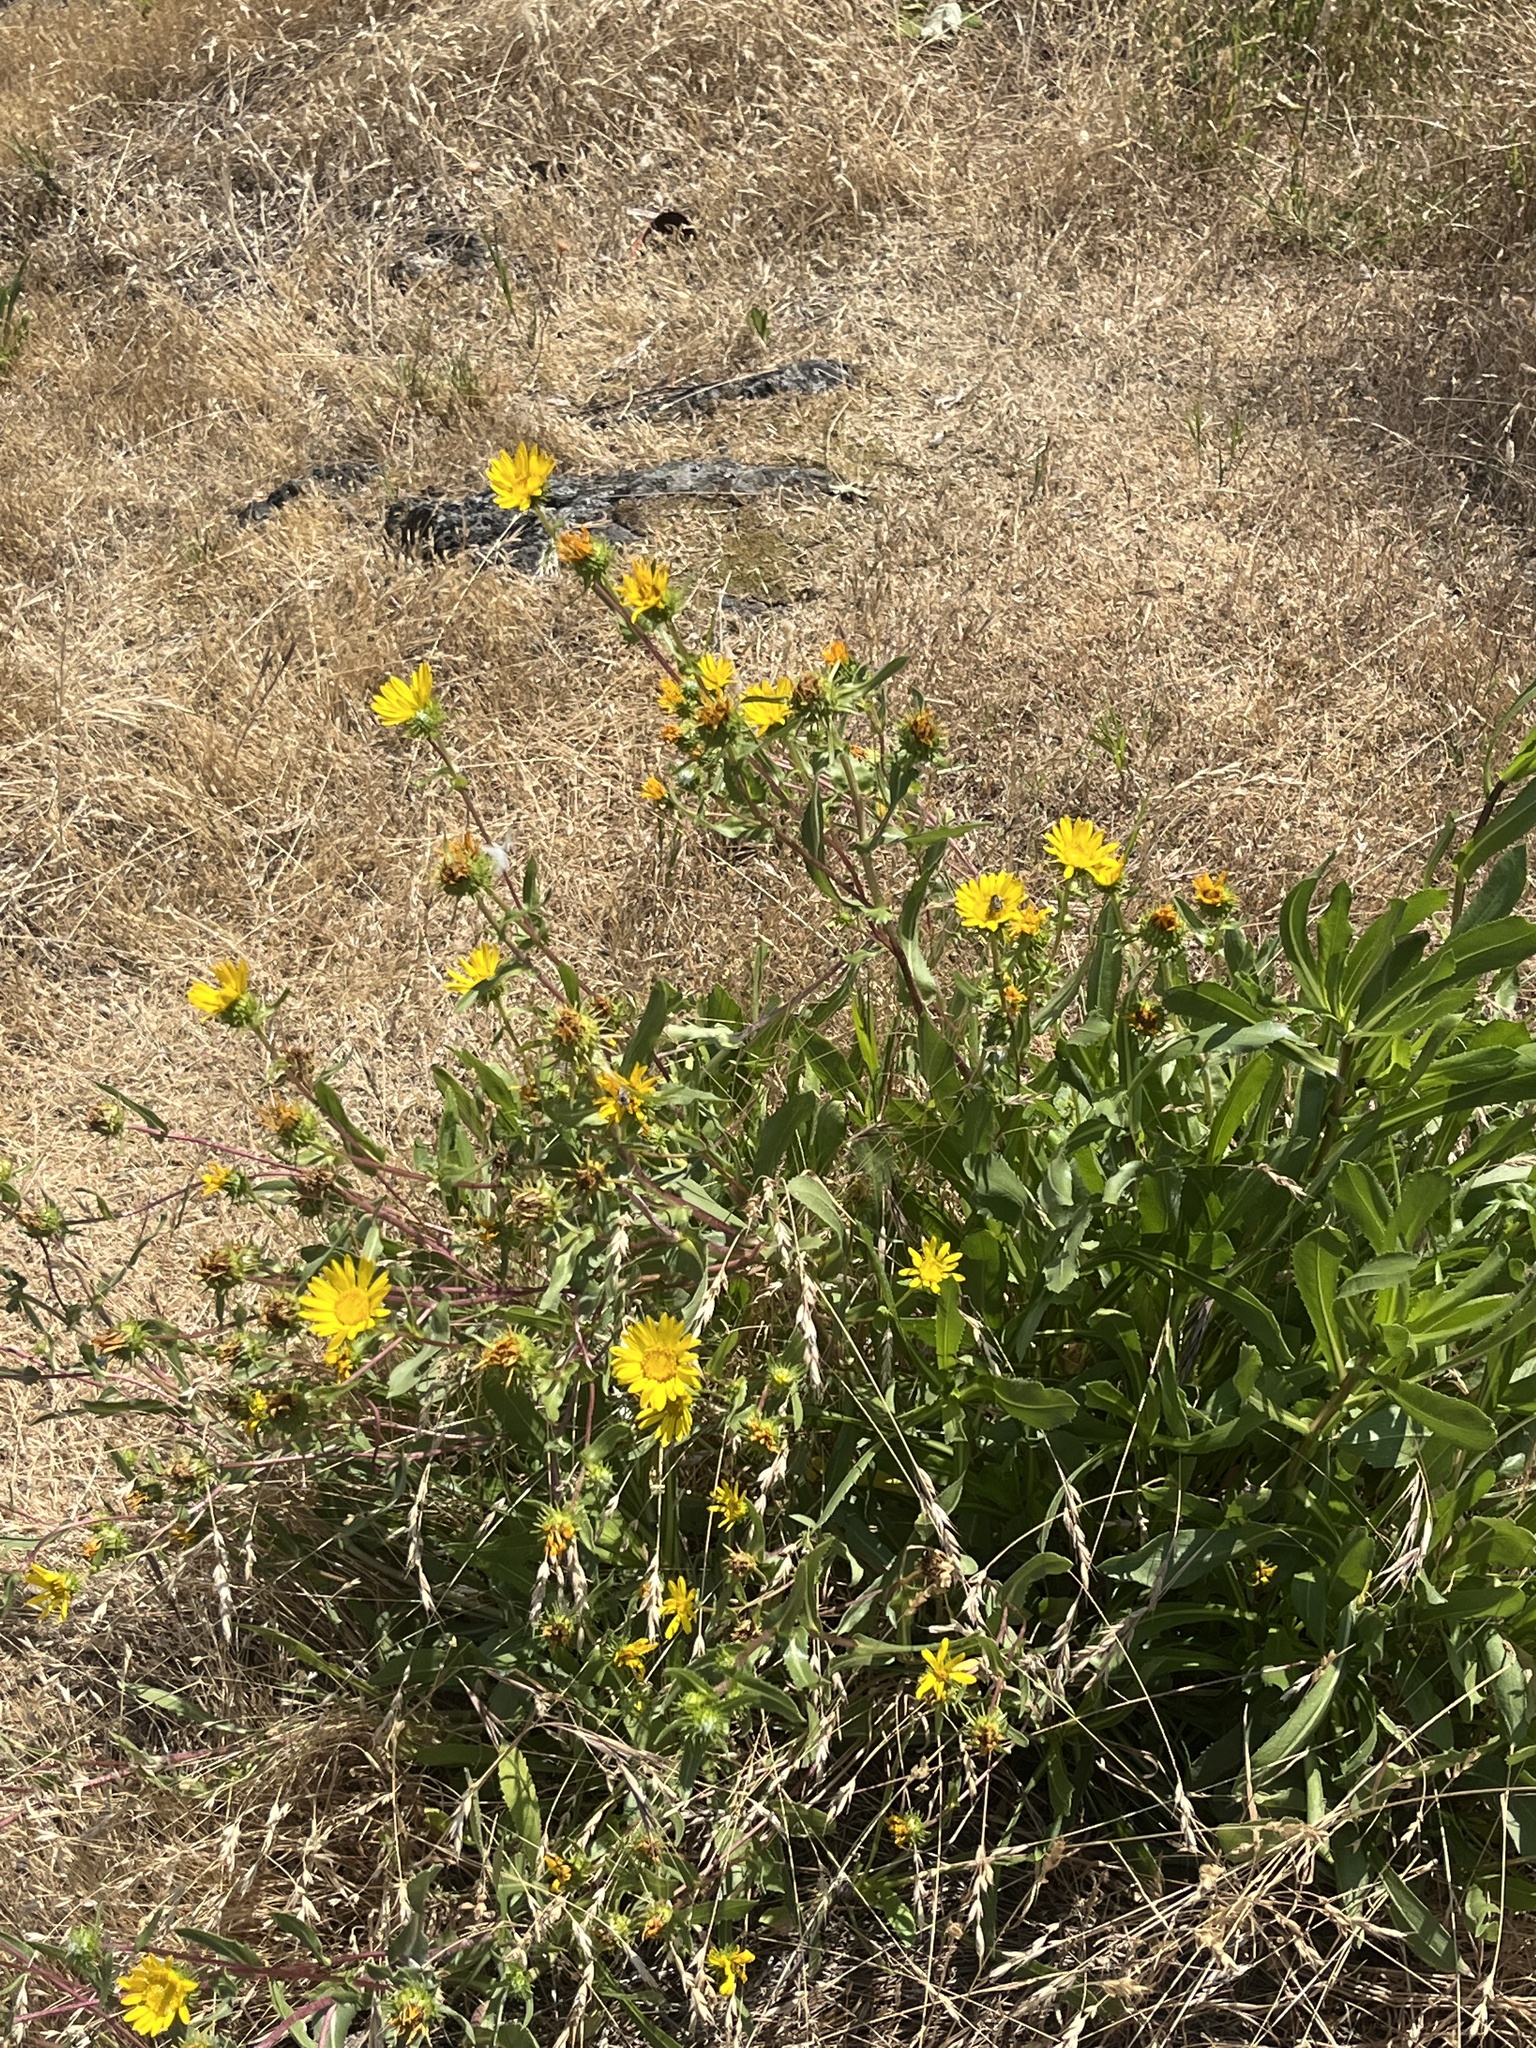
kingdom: Plantae
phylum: Tracheophyta
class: Magnoliopsida
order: Asterales
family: Asteraceae
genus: Grindelia
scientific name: Grindelia hirsutula
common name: Hairy gumweed
